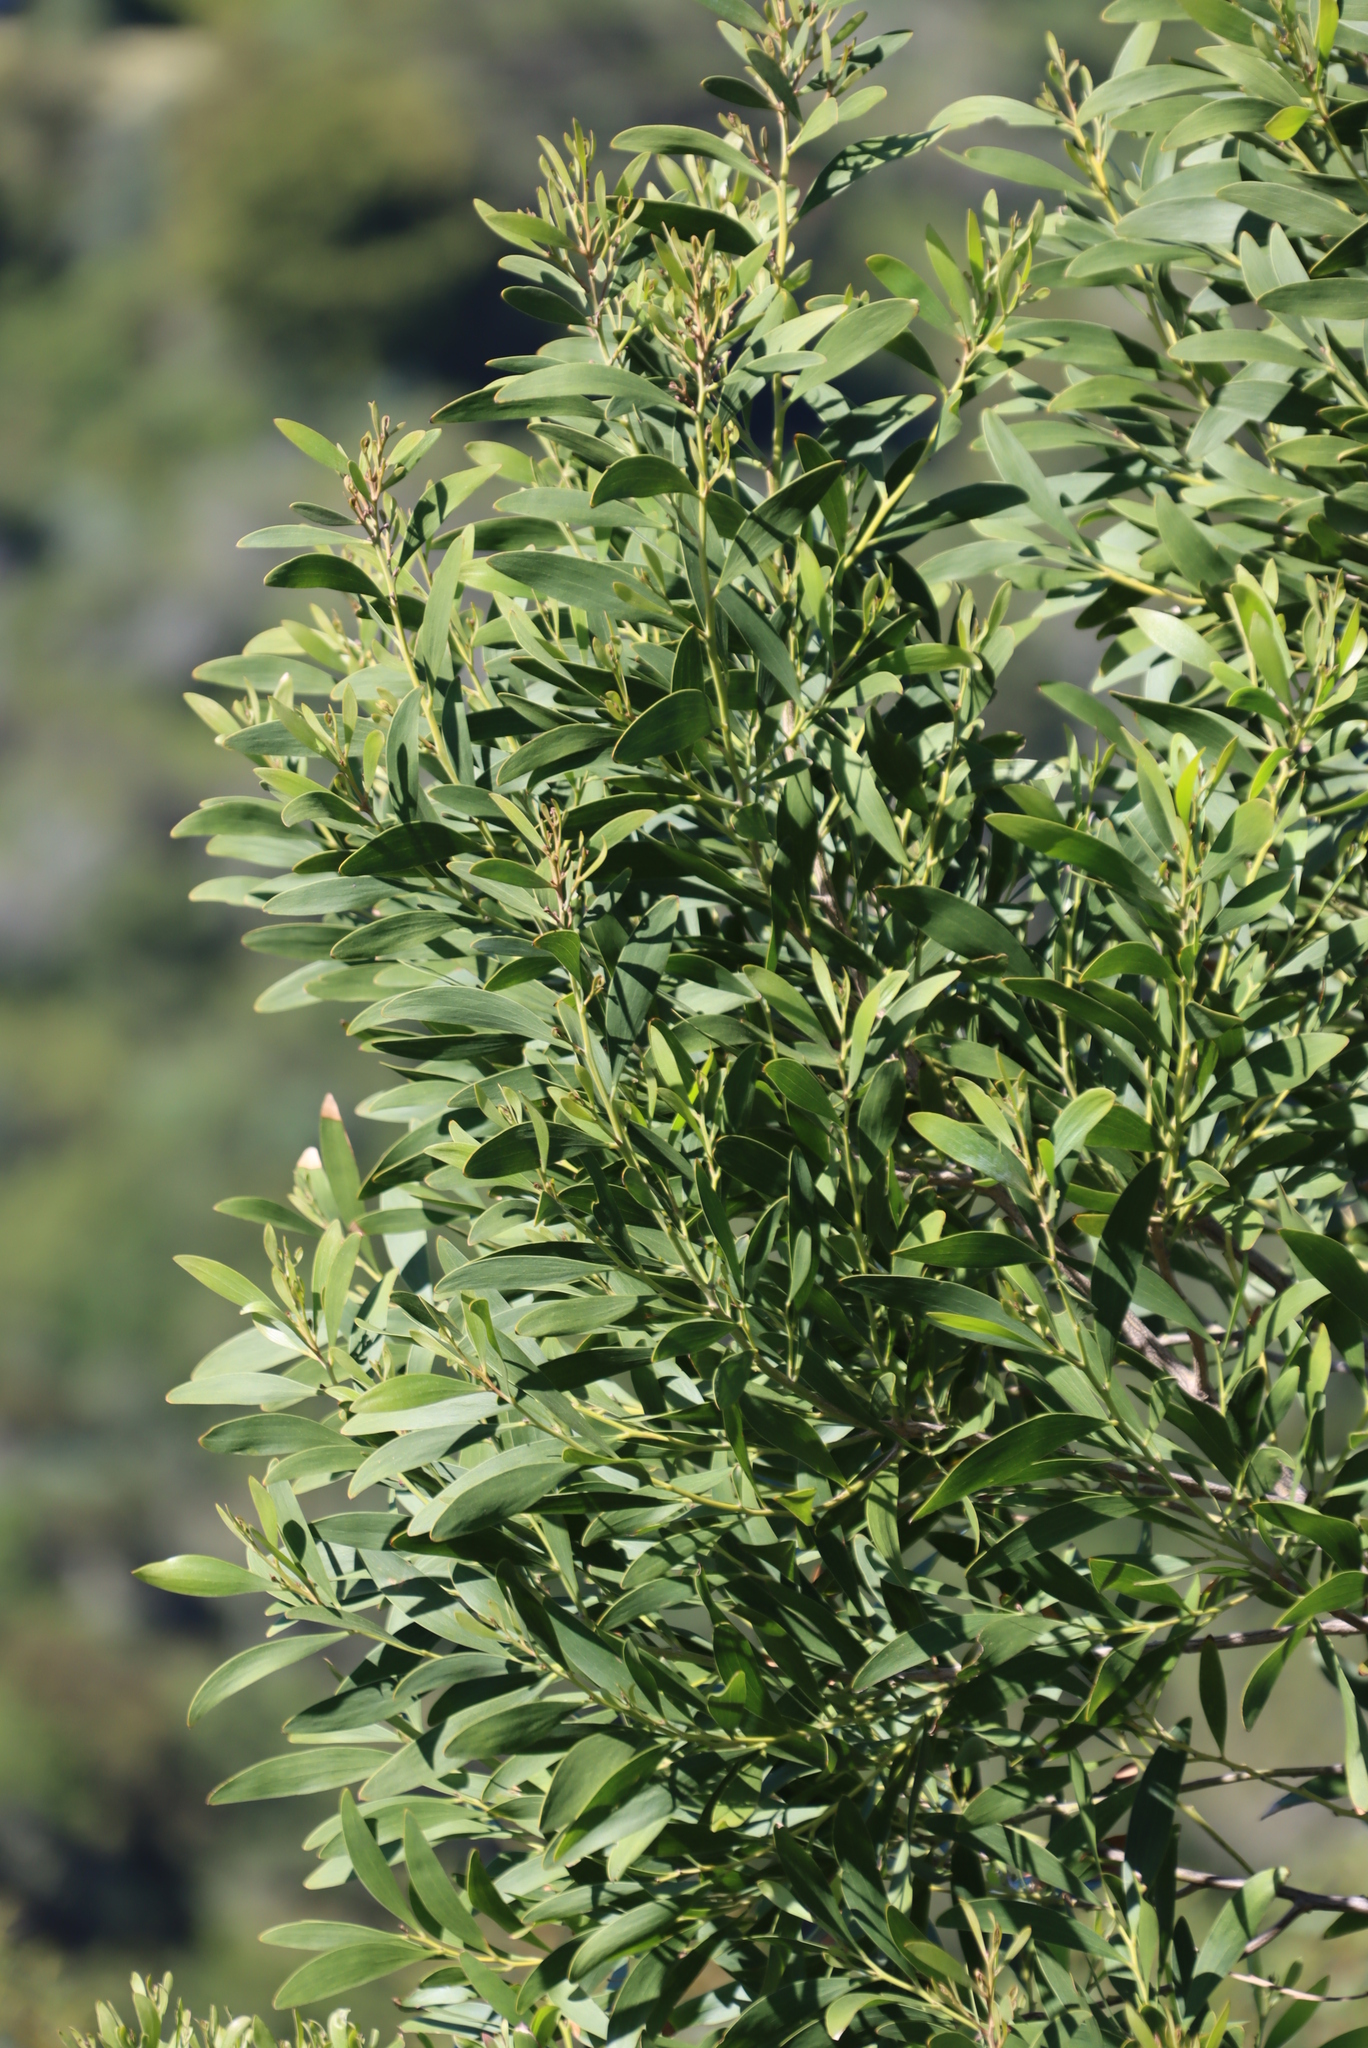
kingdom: Plantae
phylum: Tracheophyta
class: Magnoliopsida
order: Fabales
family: Fabaceae
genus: Acacia
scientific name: Acacia melanoxylon
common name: Blackwood
